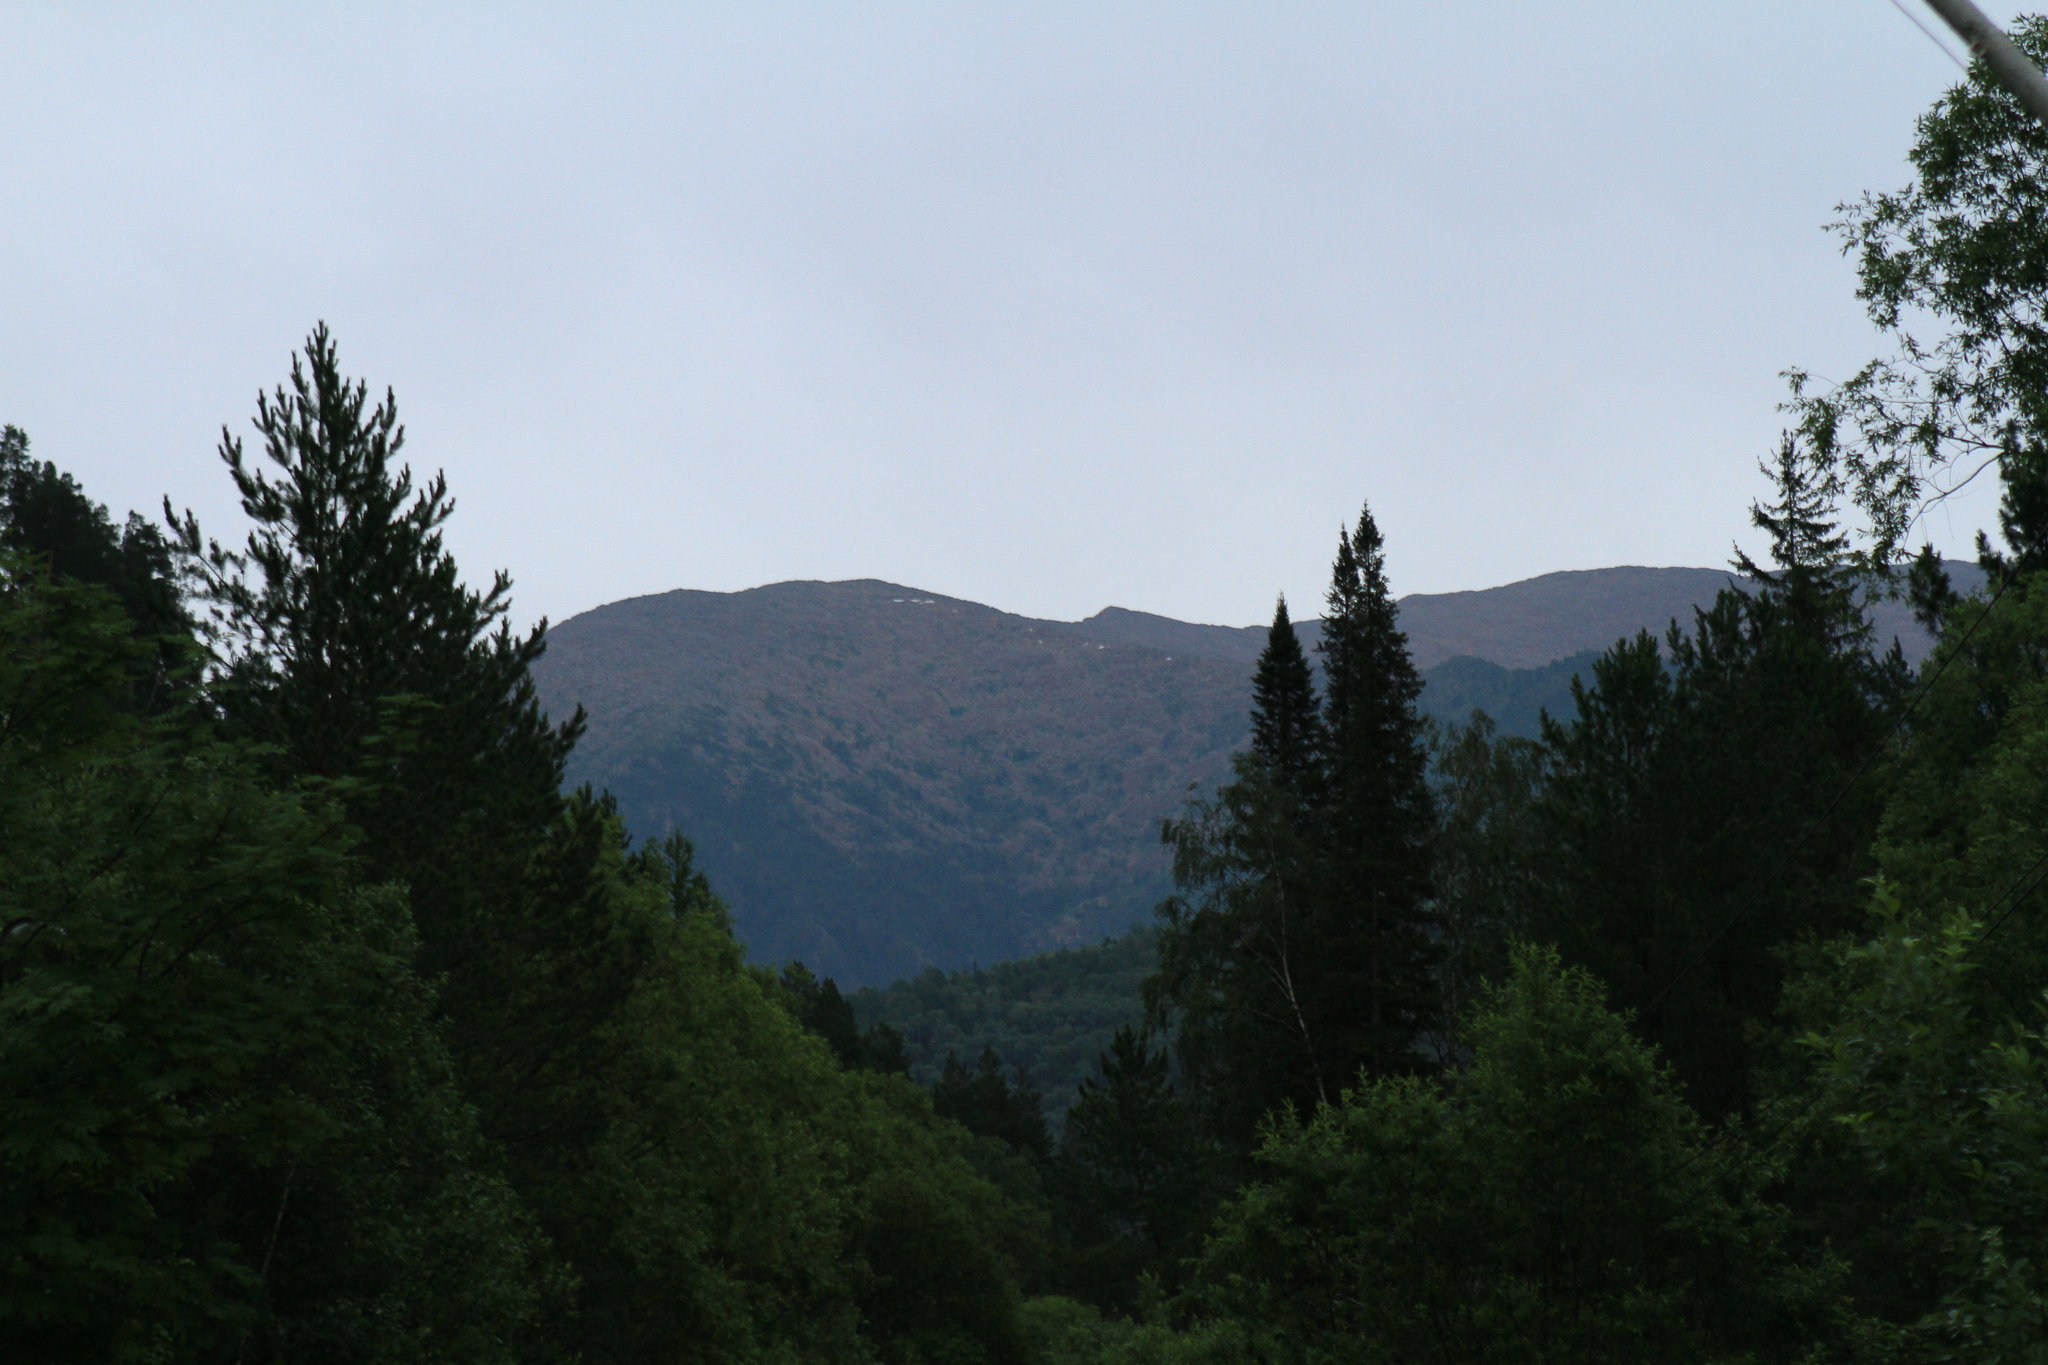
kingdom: Plantae
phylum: Tracheophyta
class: Pinopsida
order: Pinales
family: Pinaceae
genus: Abies
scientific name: Abies sibirica
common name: Siberian fir
